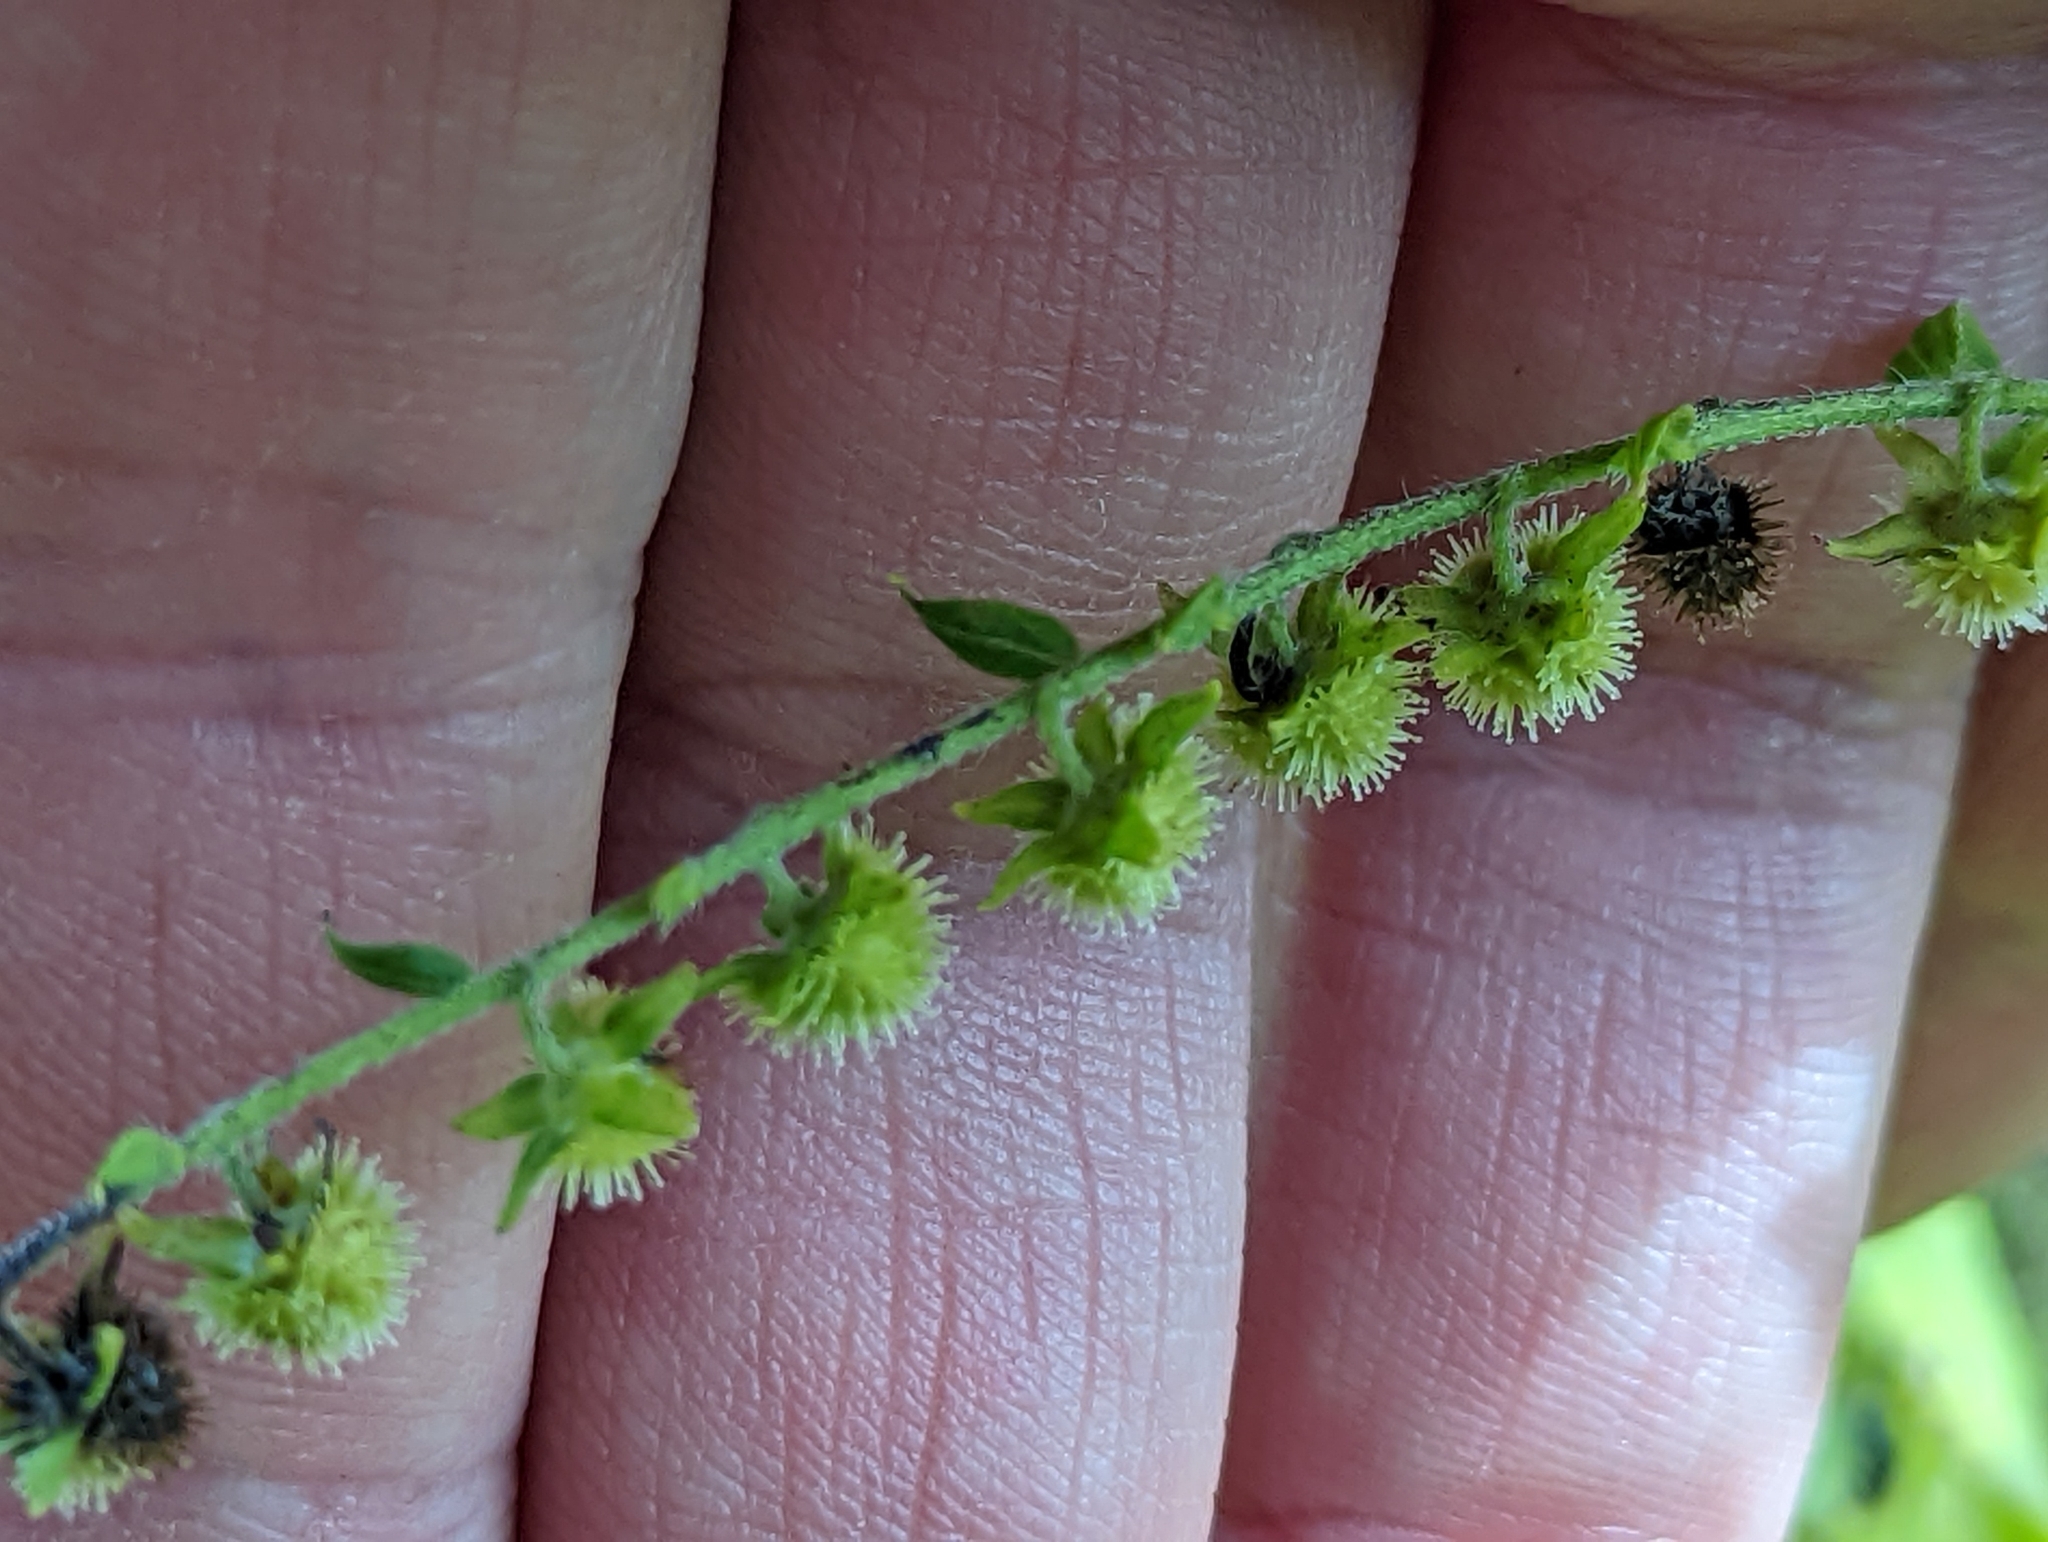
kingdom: Plantae
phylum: Tracheophyta
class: Magnoliopsida
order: Boraginales
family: Boraginaceae
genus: Hackelia
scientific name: Hackelia virginiana
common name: Beggar's-lice
